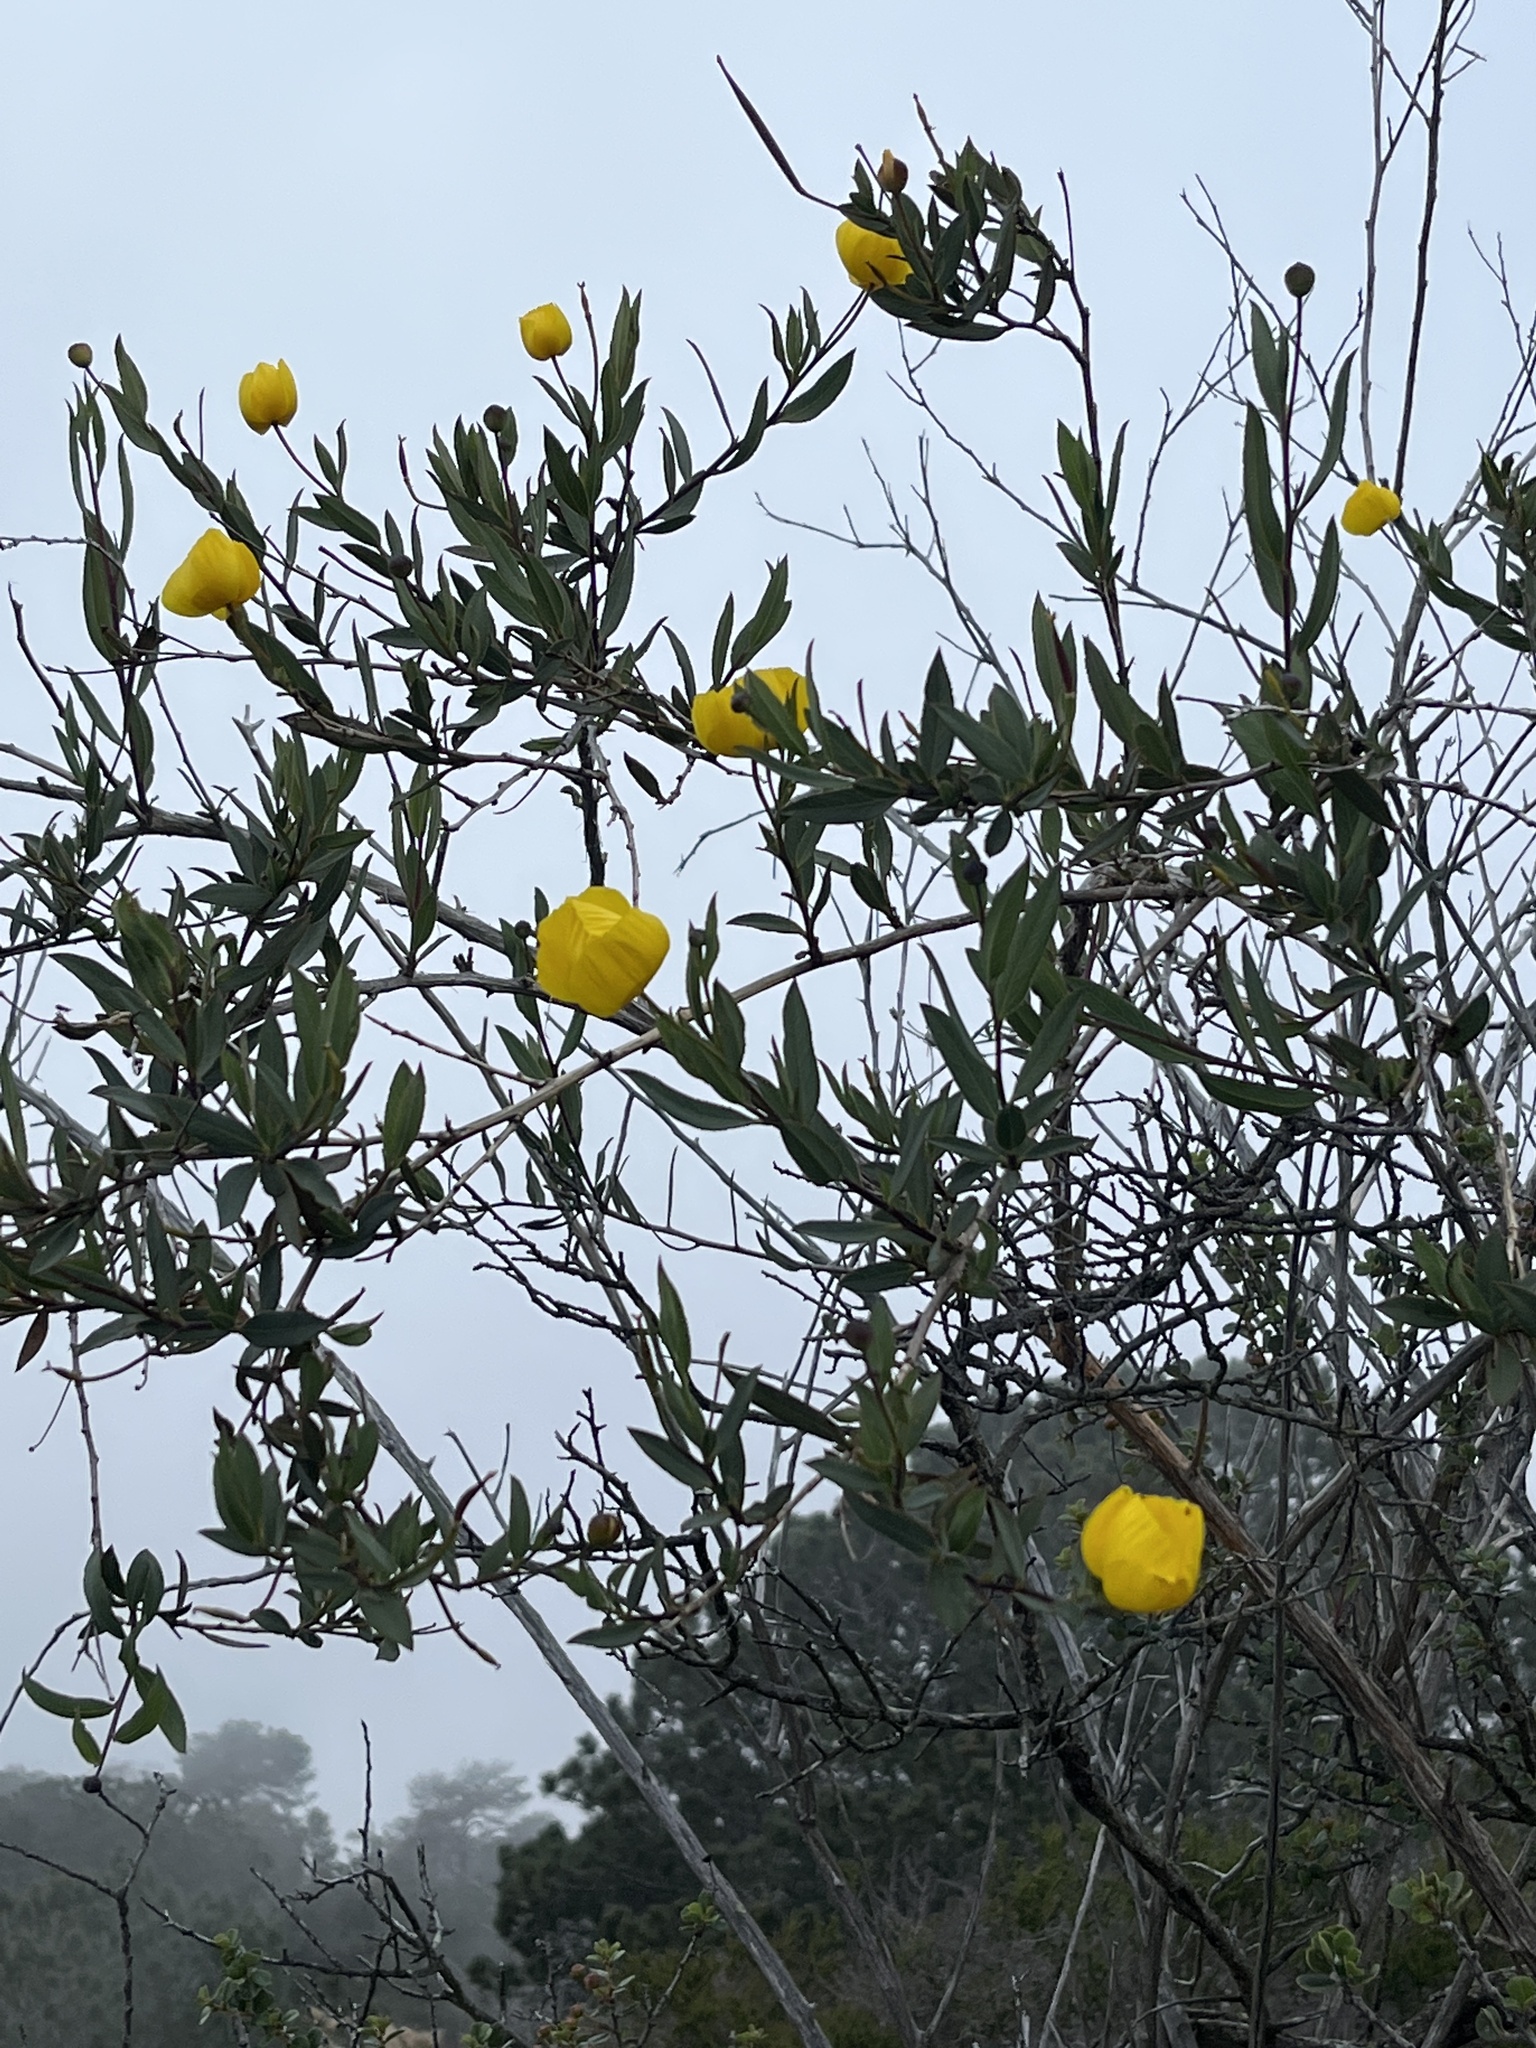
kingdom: Plantae
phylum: Tracheophyta
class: Magnoliopsida
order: Ranunculales
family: Papaveraceae
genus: Dendromecon
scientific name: Dendromecon rigida
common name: Tree poppy
